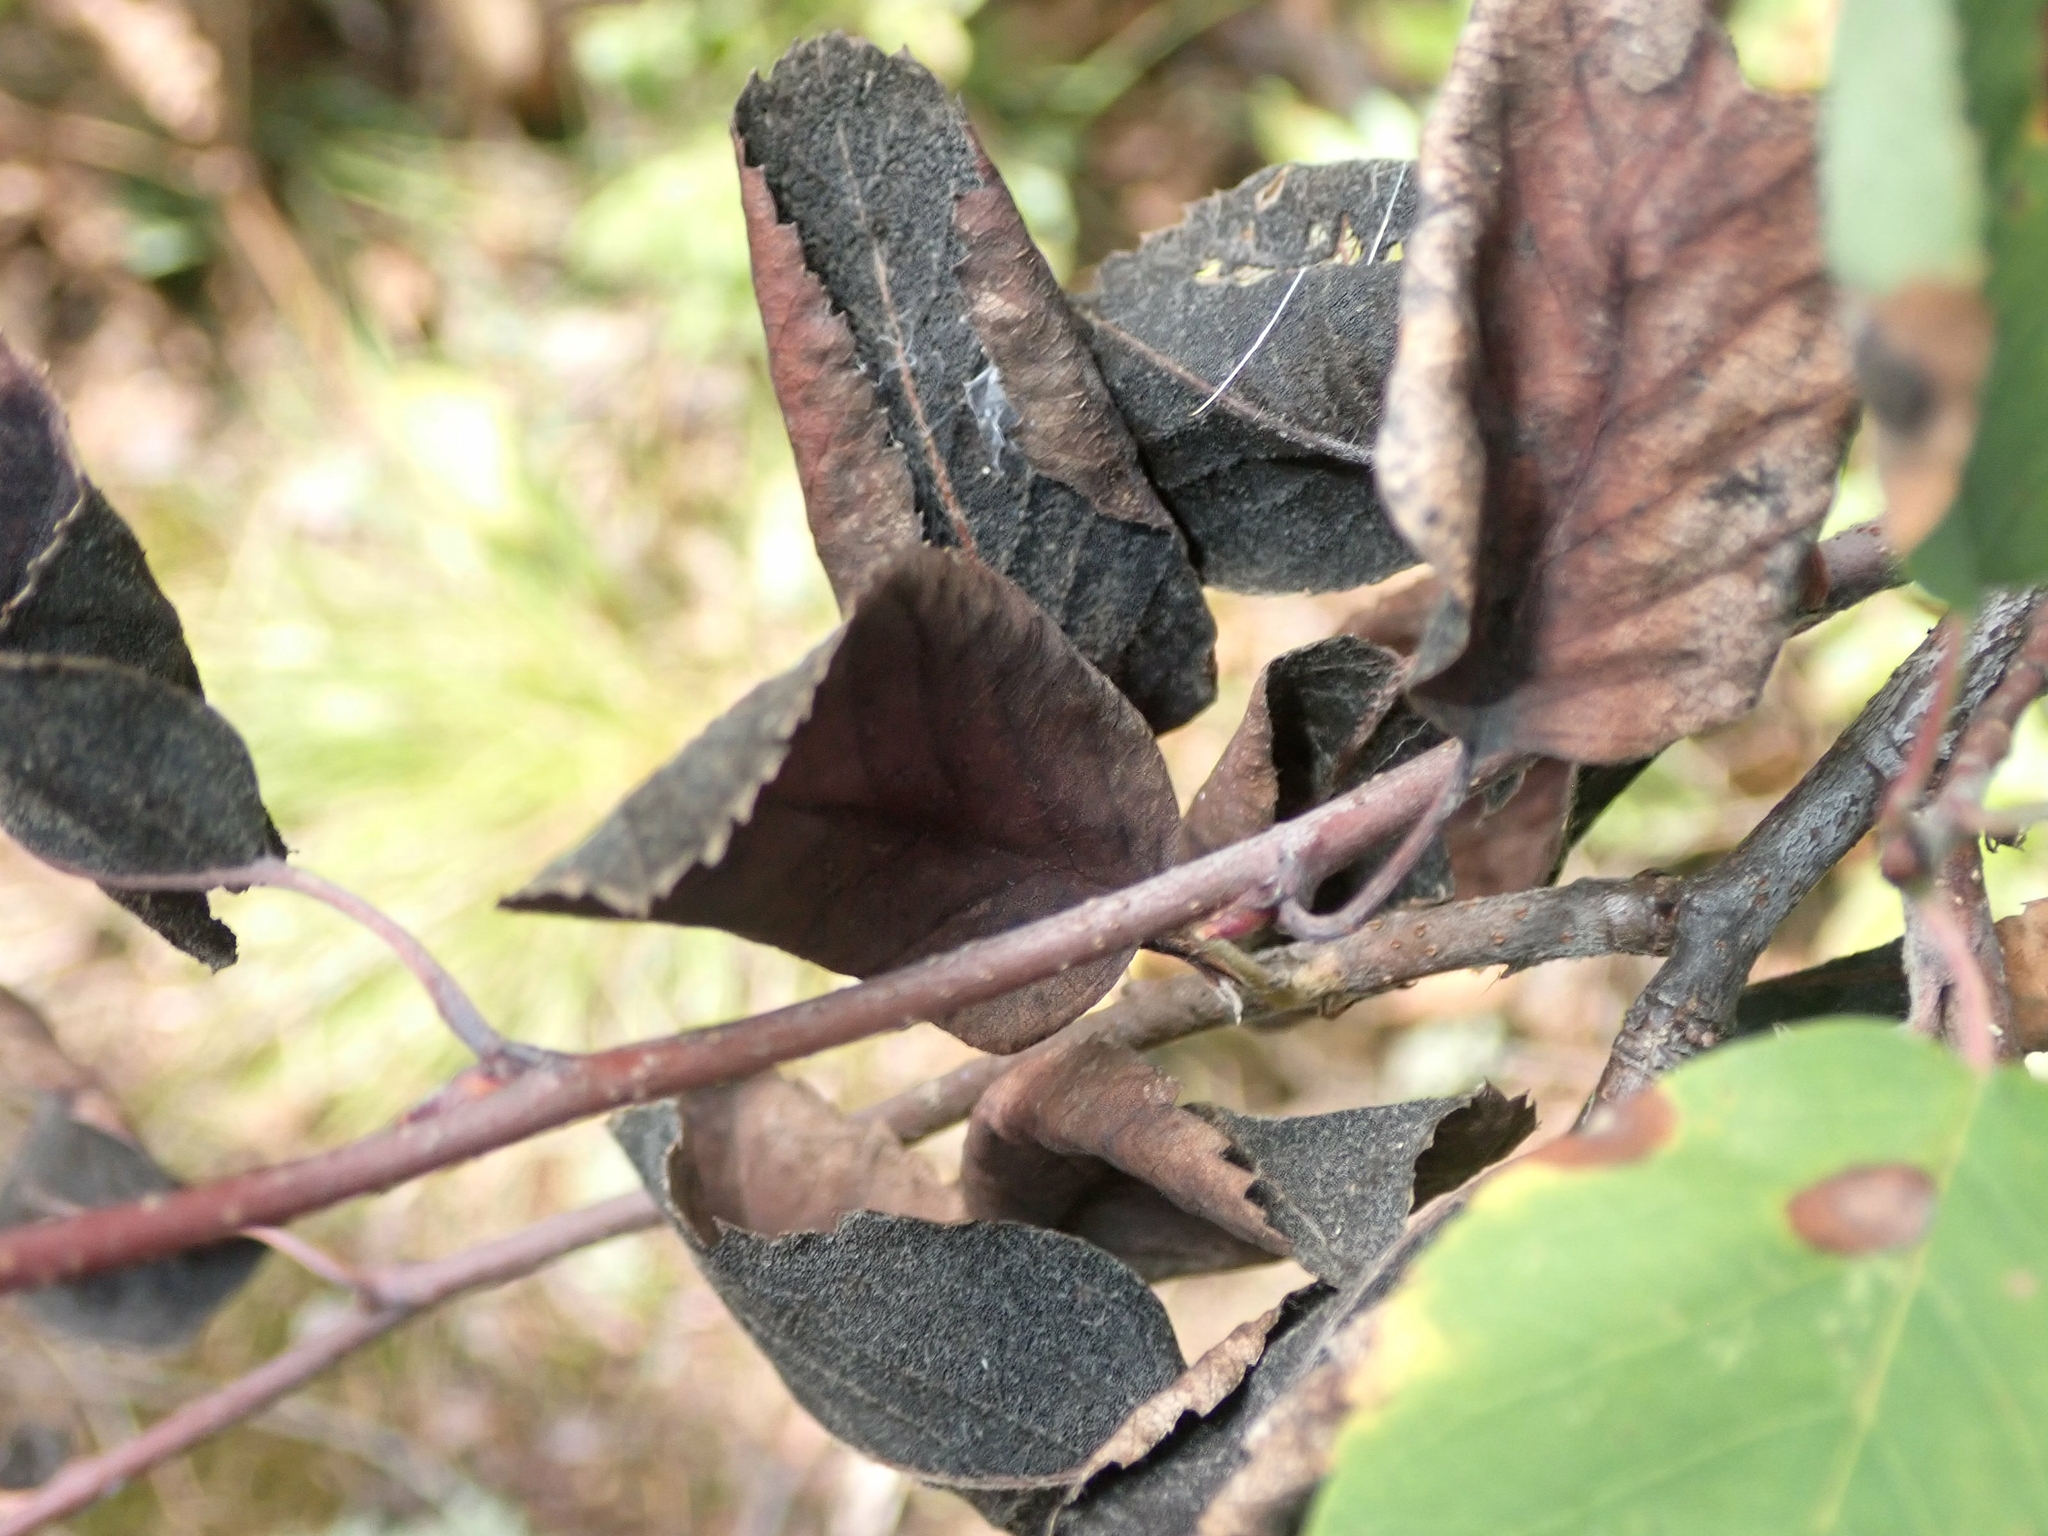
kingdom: Fungi
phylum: Ascomycota
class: Dothideomycetes
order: Venturiales
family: Venturiaceae
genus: Apiosporina
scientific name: Apiosporina collinsii
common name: Black leaf
